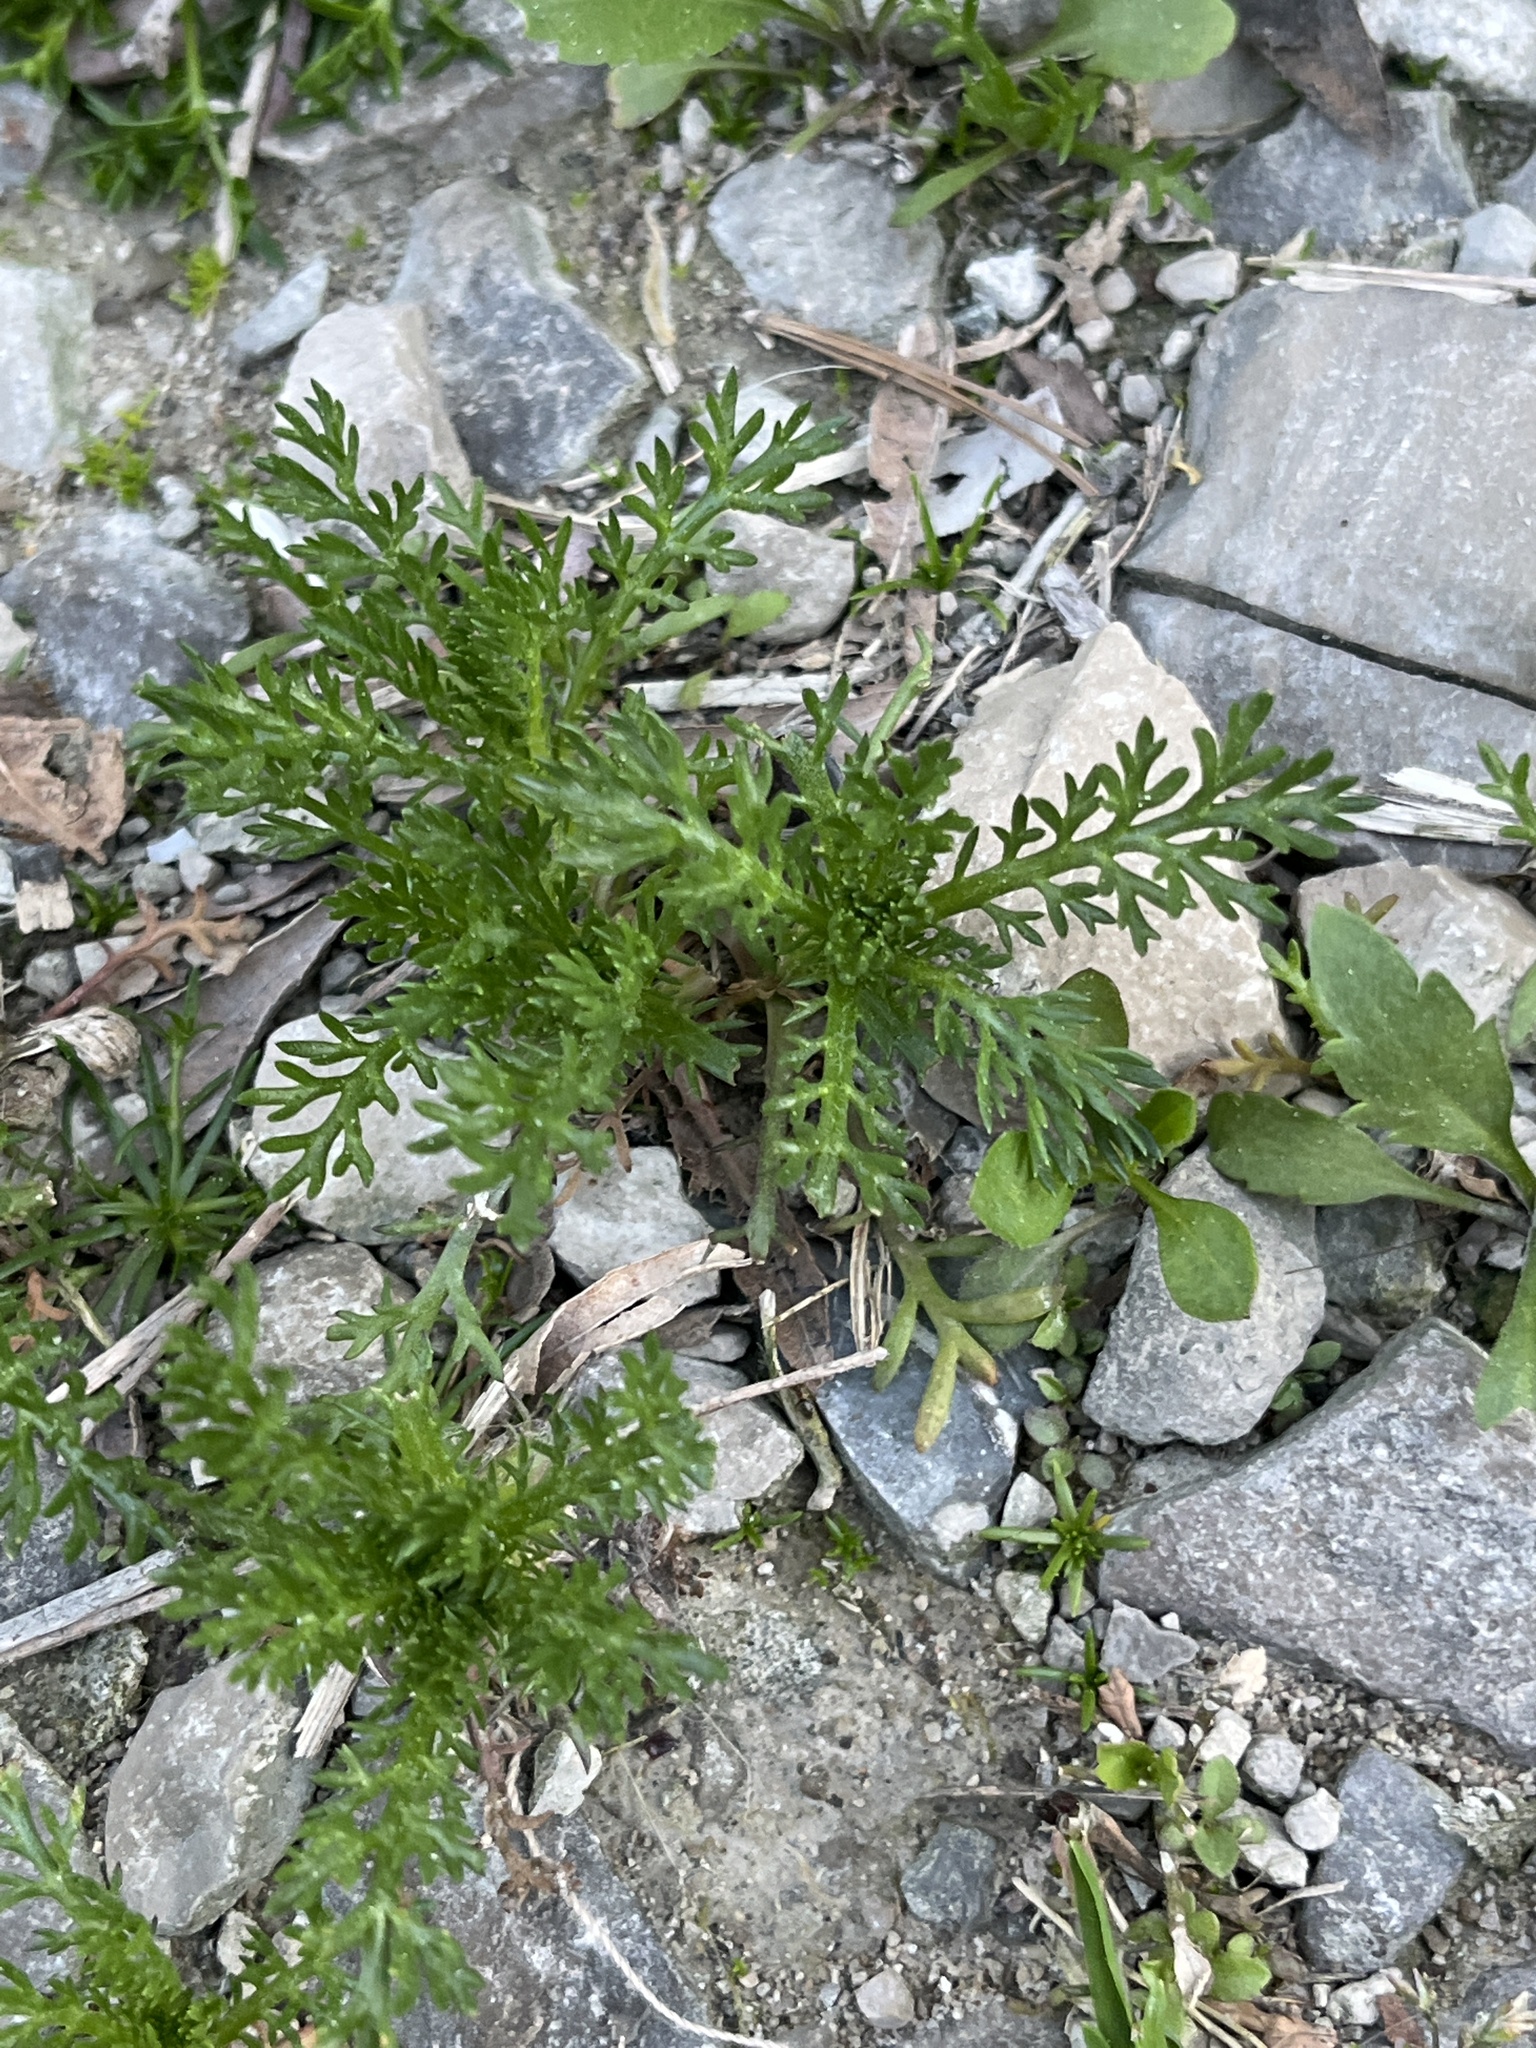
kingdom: Plantae
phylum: Tracheophyta
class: Magnoliopsida
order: Asterales
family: Asteraceae
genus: Matricaria
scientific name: Matricaria discoidea
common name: Disc mayweed
